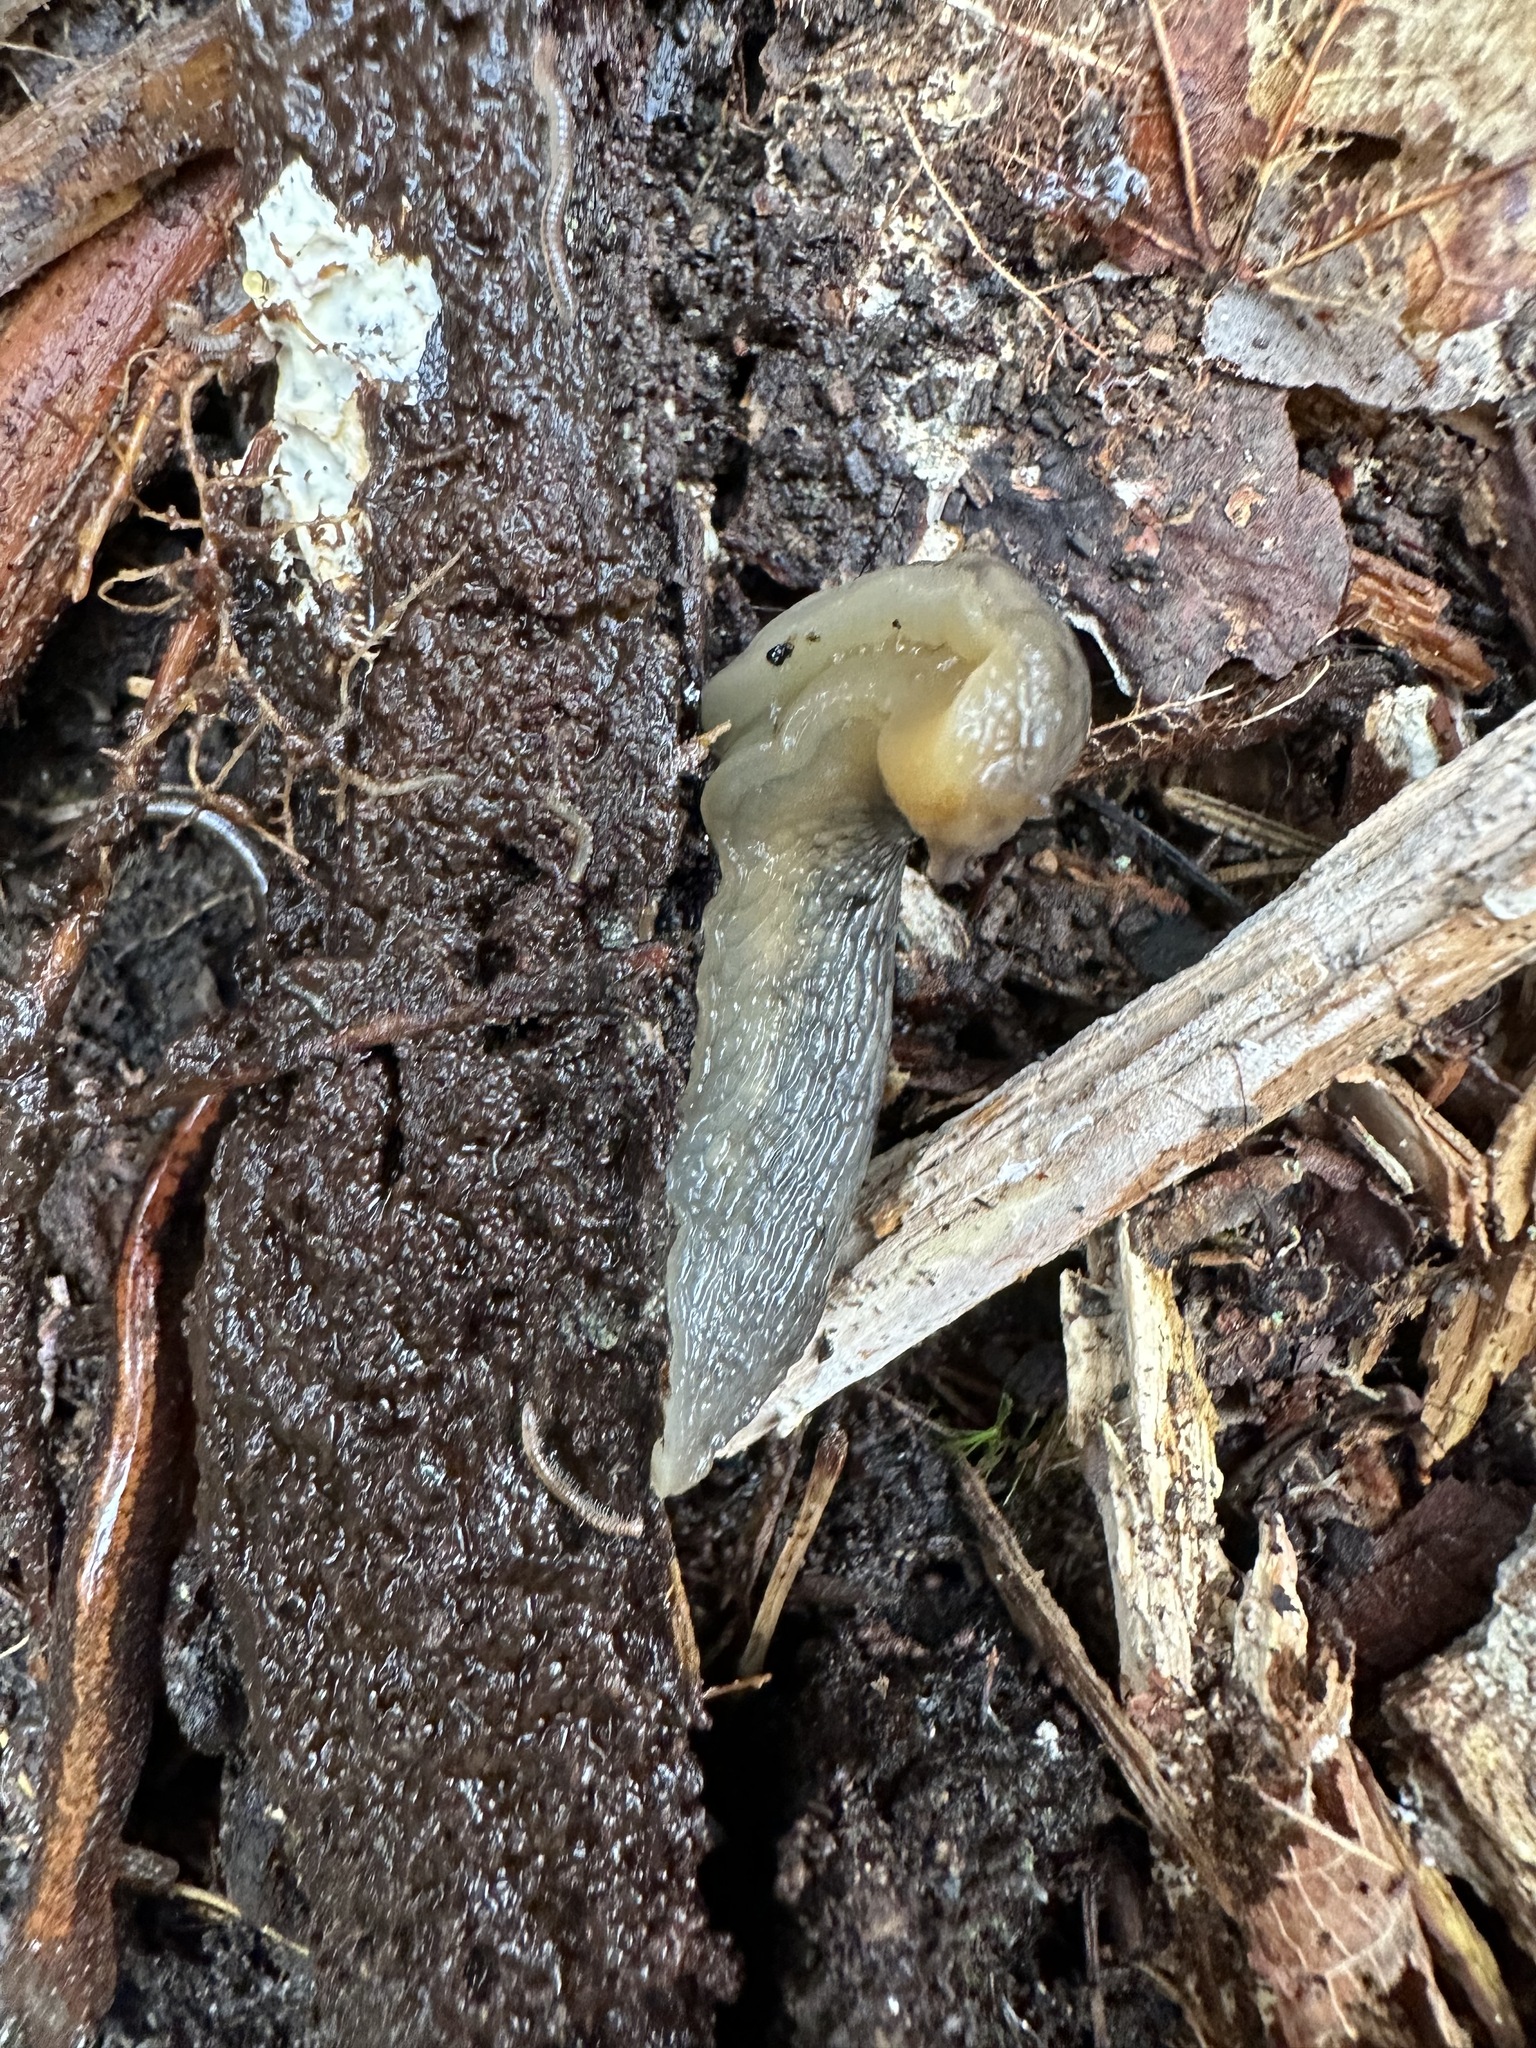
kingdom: Animalia
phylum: Mollusca
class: Gastropoda
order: Stylommatophora
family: Limacidae
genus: Lehmannia
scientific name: Lehmannia marginata
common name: Tree slug
